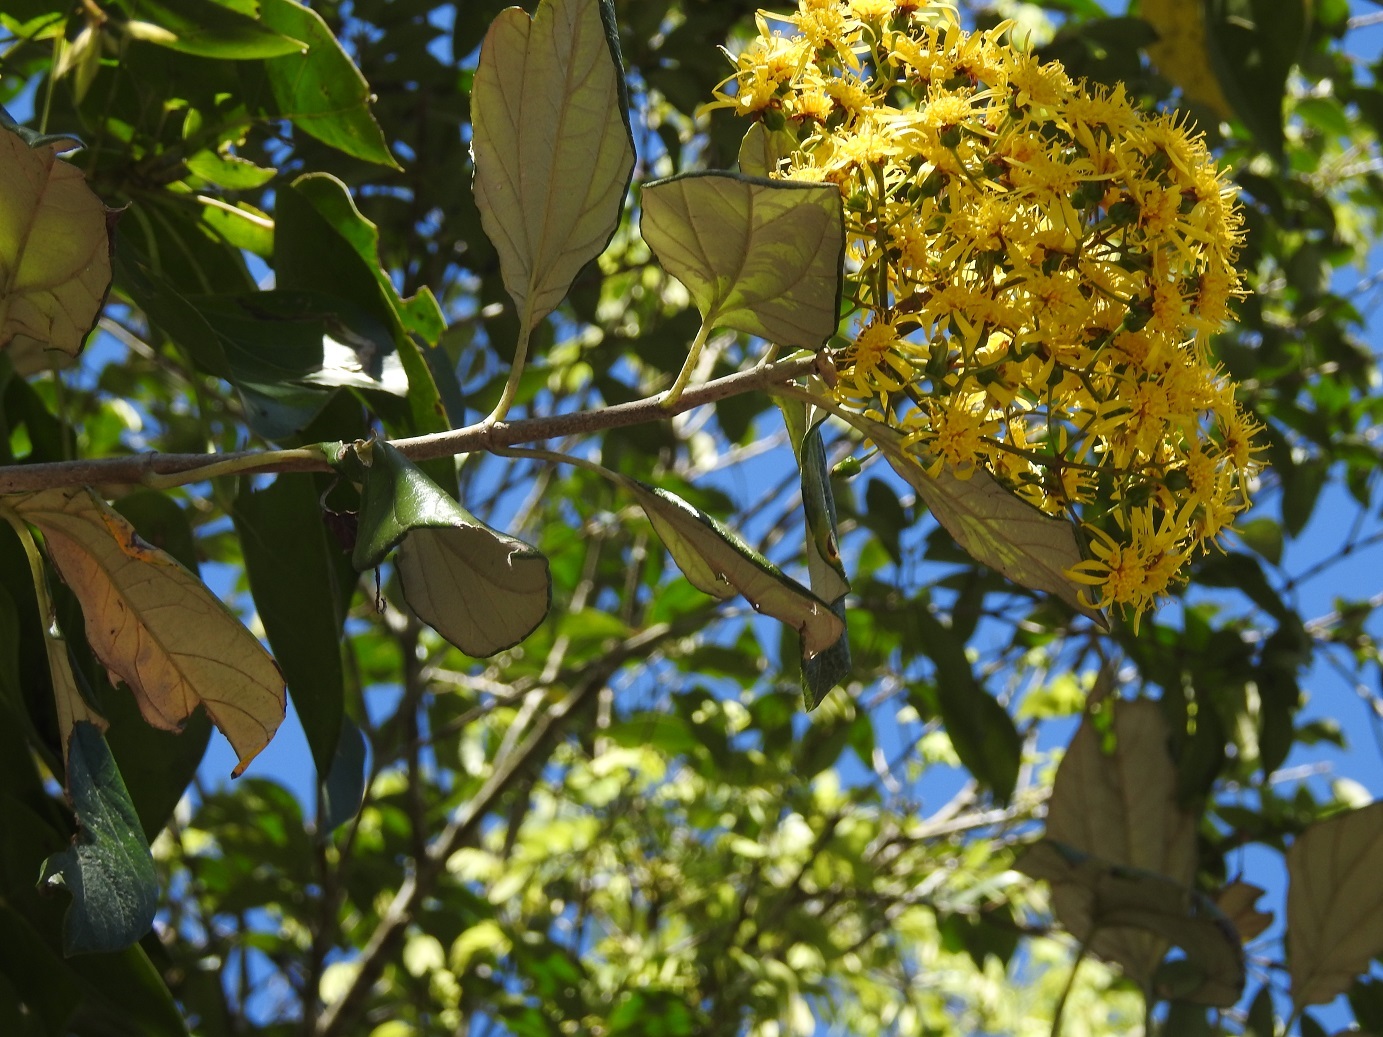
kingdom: Plantae
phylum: Tracheophyta
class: Magnoliopsida
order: Asterales
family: Asteraceae
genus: Sinclairia
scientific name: Sinclairia discolor
